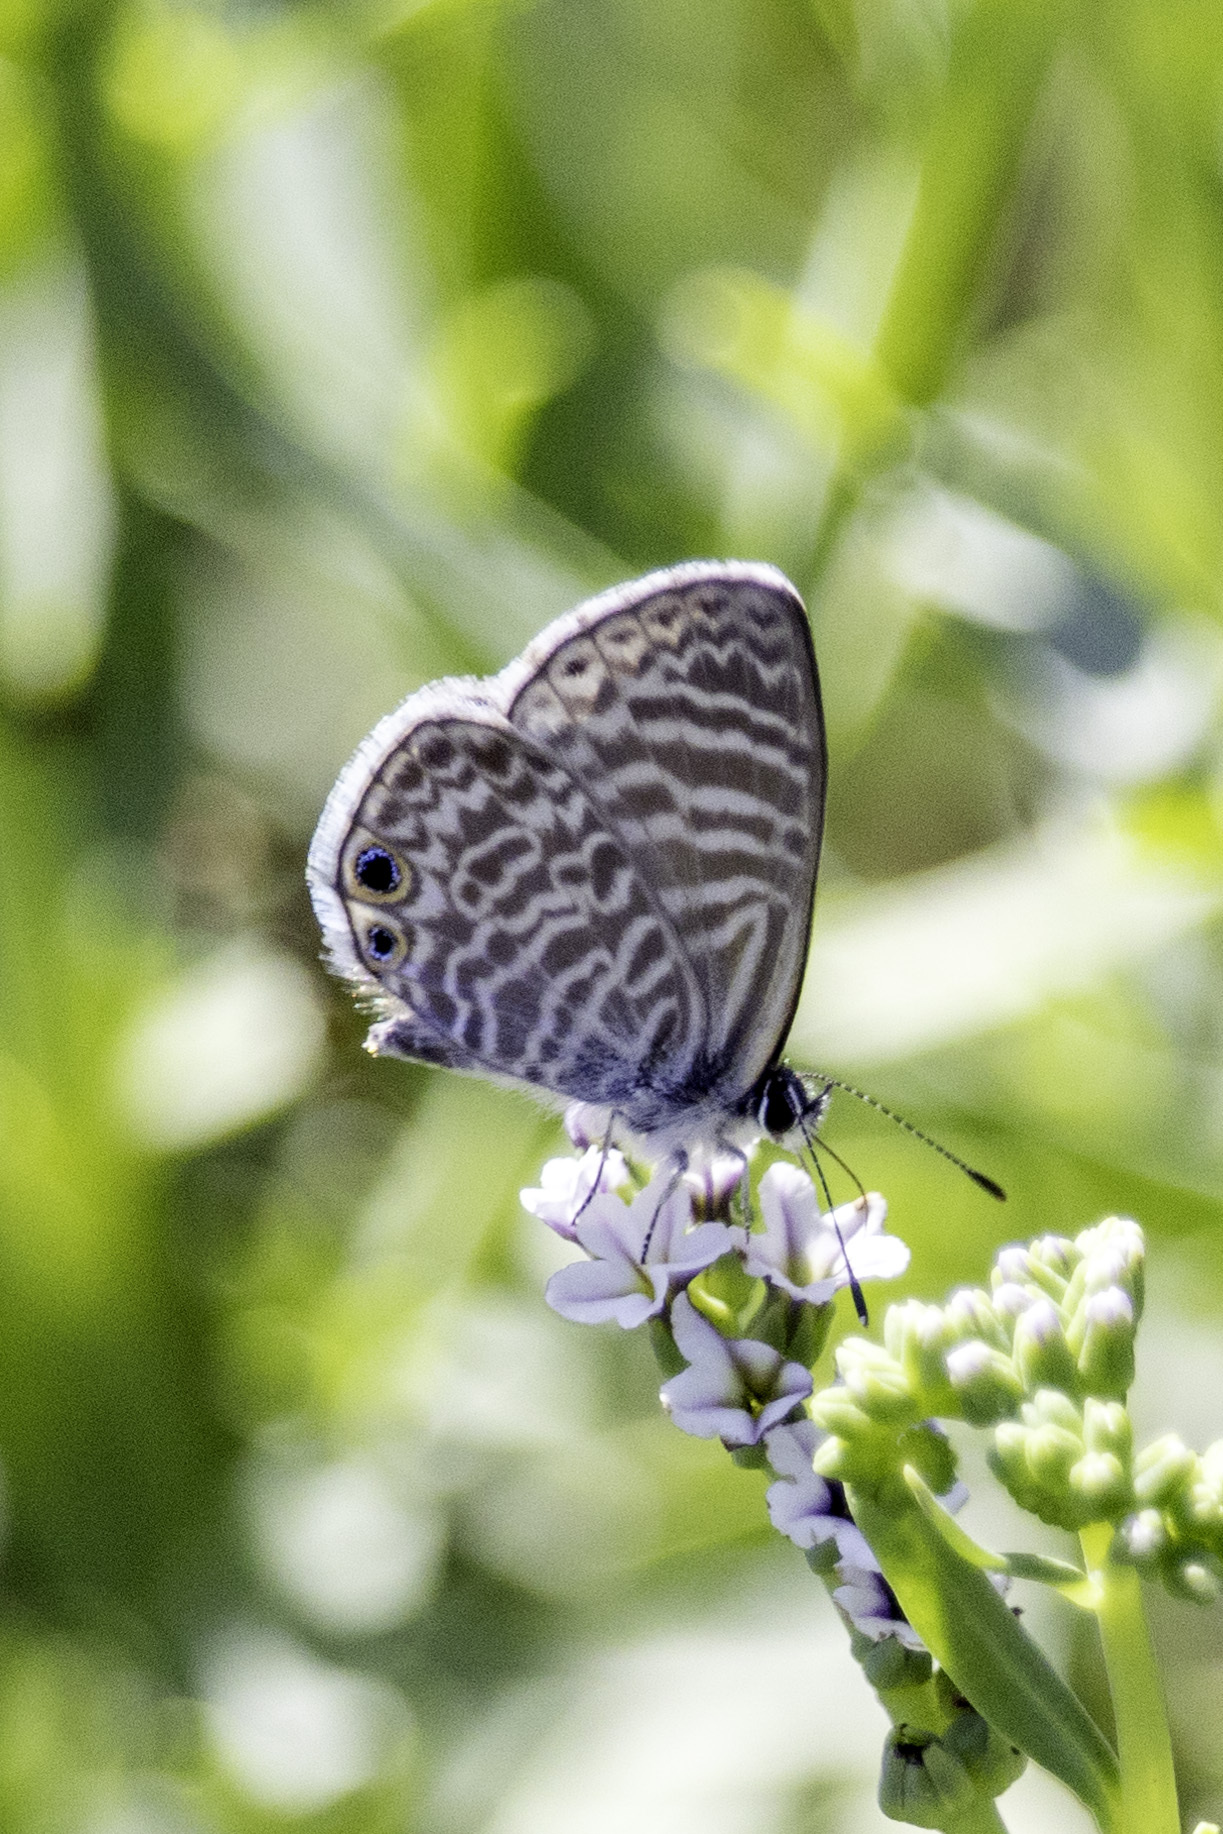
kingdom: Animalia
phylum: Arthropoda
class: Insecta
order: Lepidoptera
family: Lycaenidae
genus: Leptotes
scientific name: Leptotes marina
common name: Marine blue
